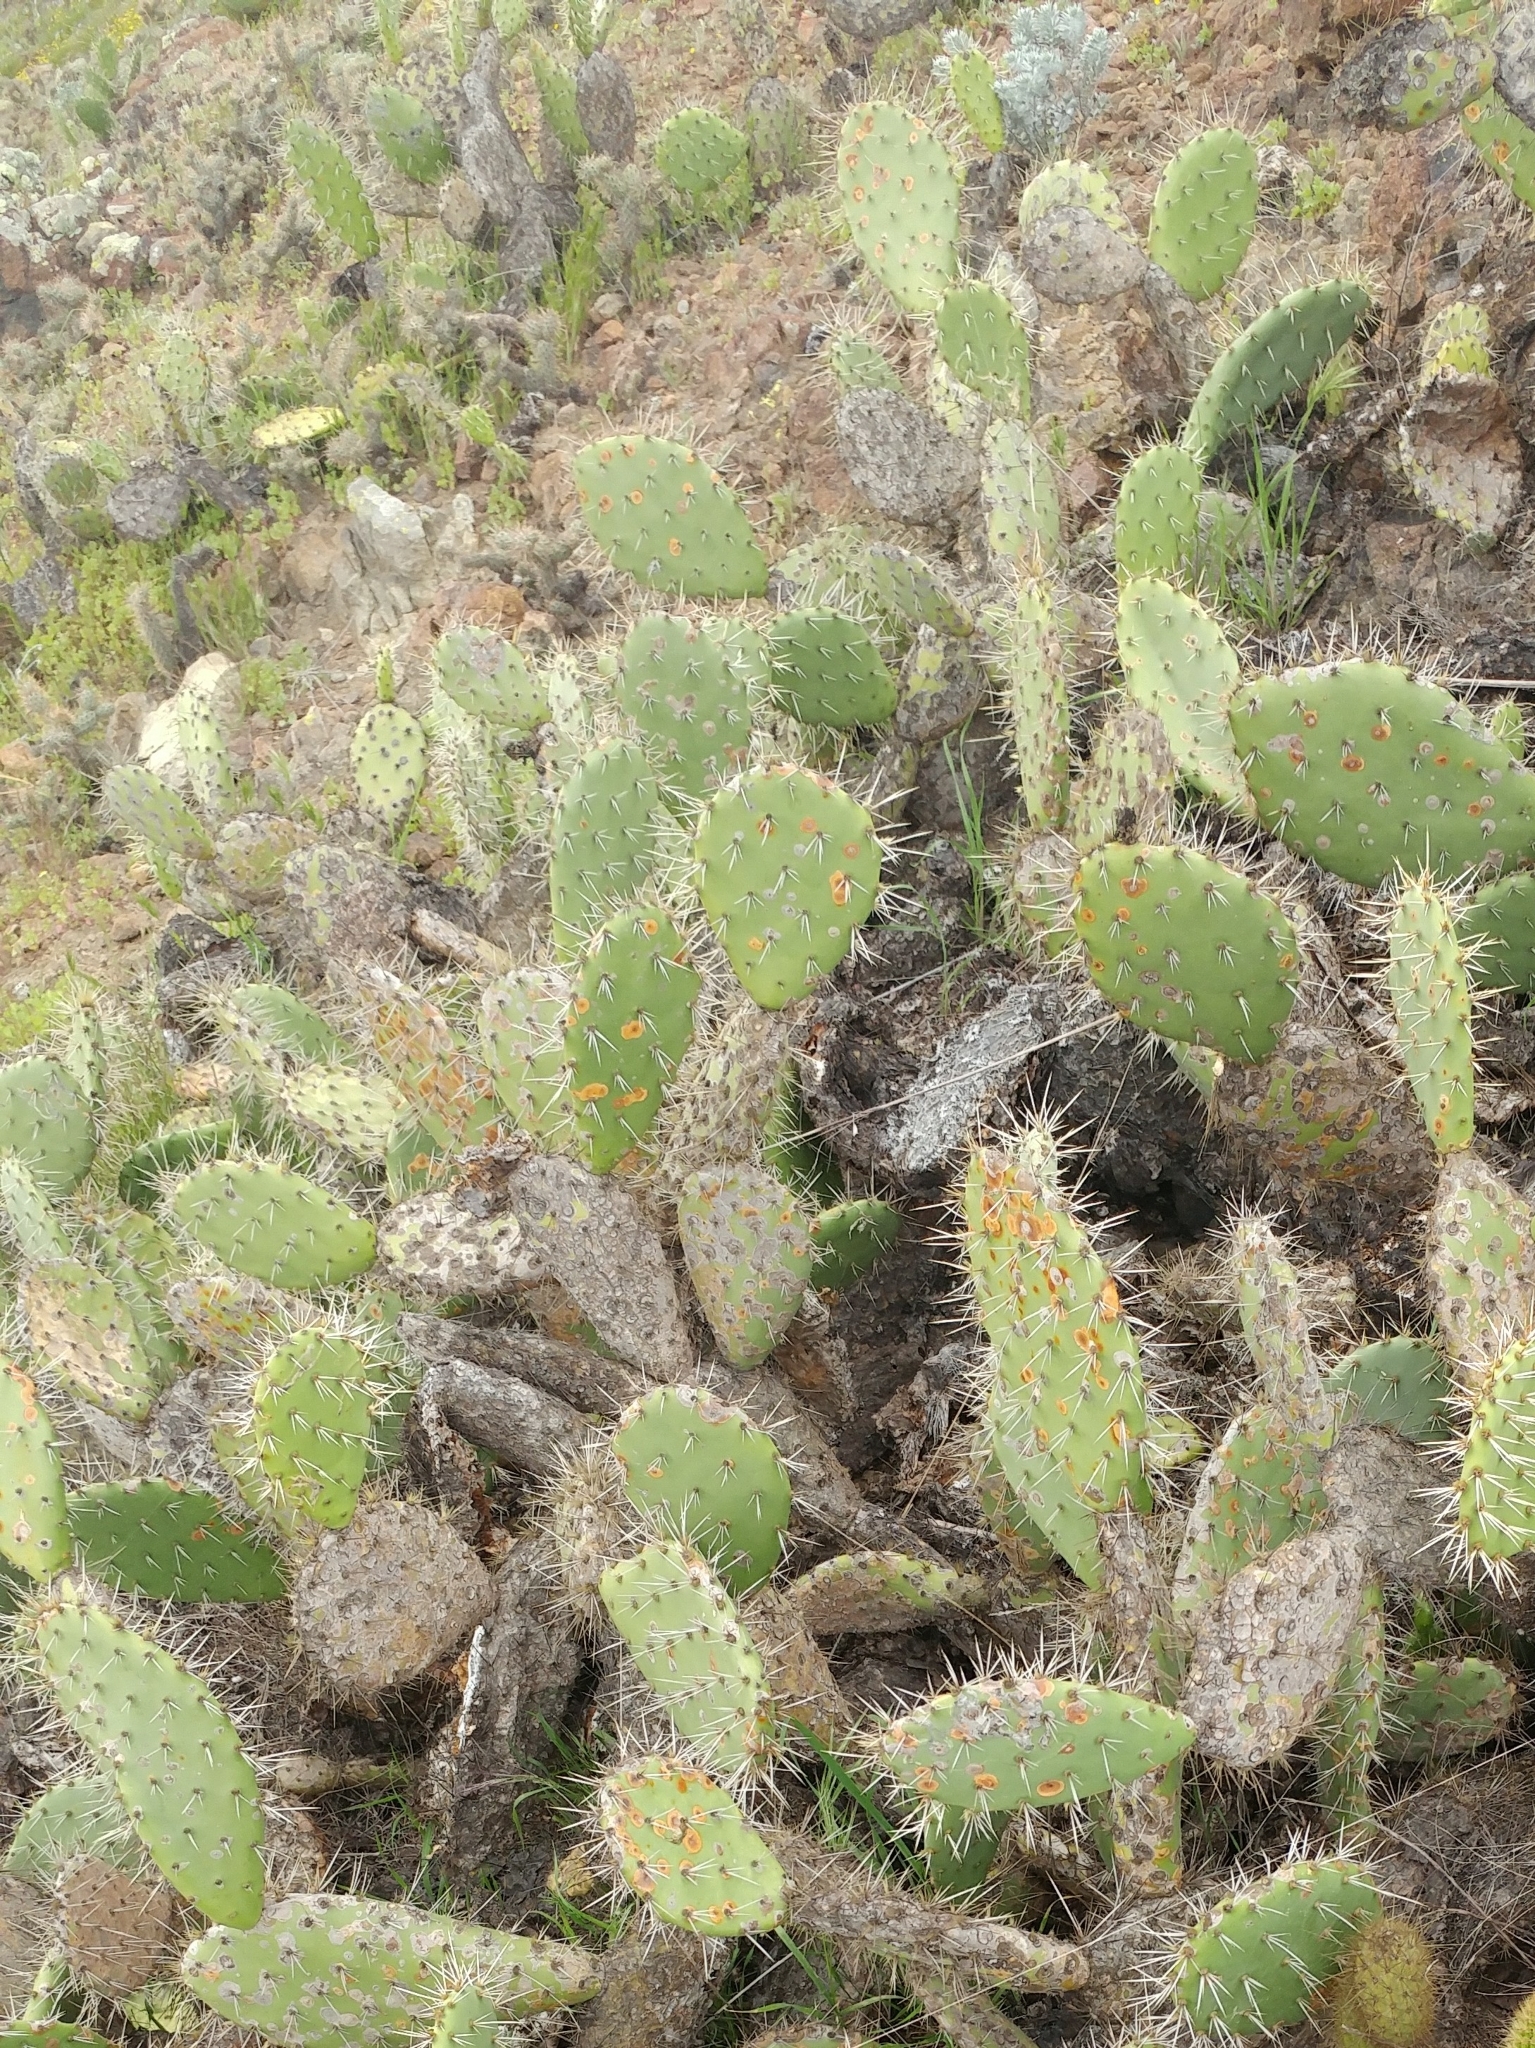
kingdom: Plantae
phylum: Tracheophyta
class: Magnoliopsida
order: Caryophyllales
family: Cactaceae
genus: Opuntia
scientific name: Opuntia littoralis
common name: Coastal prickly-pear
